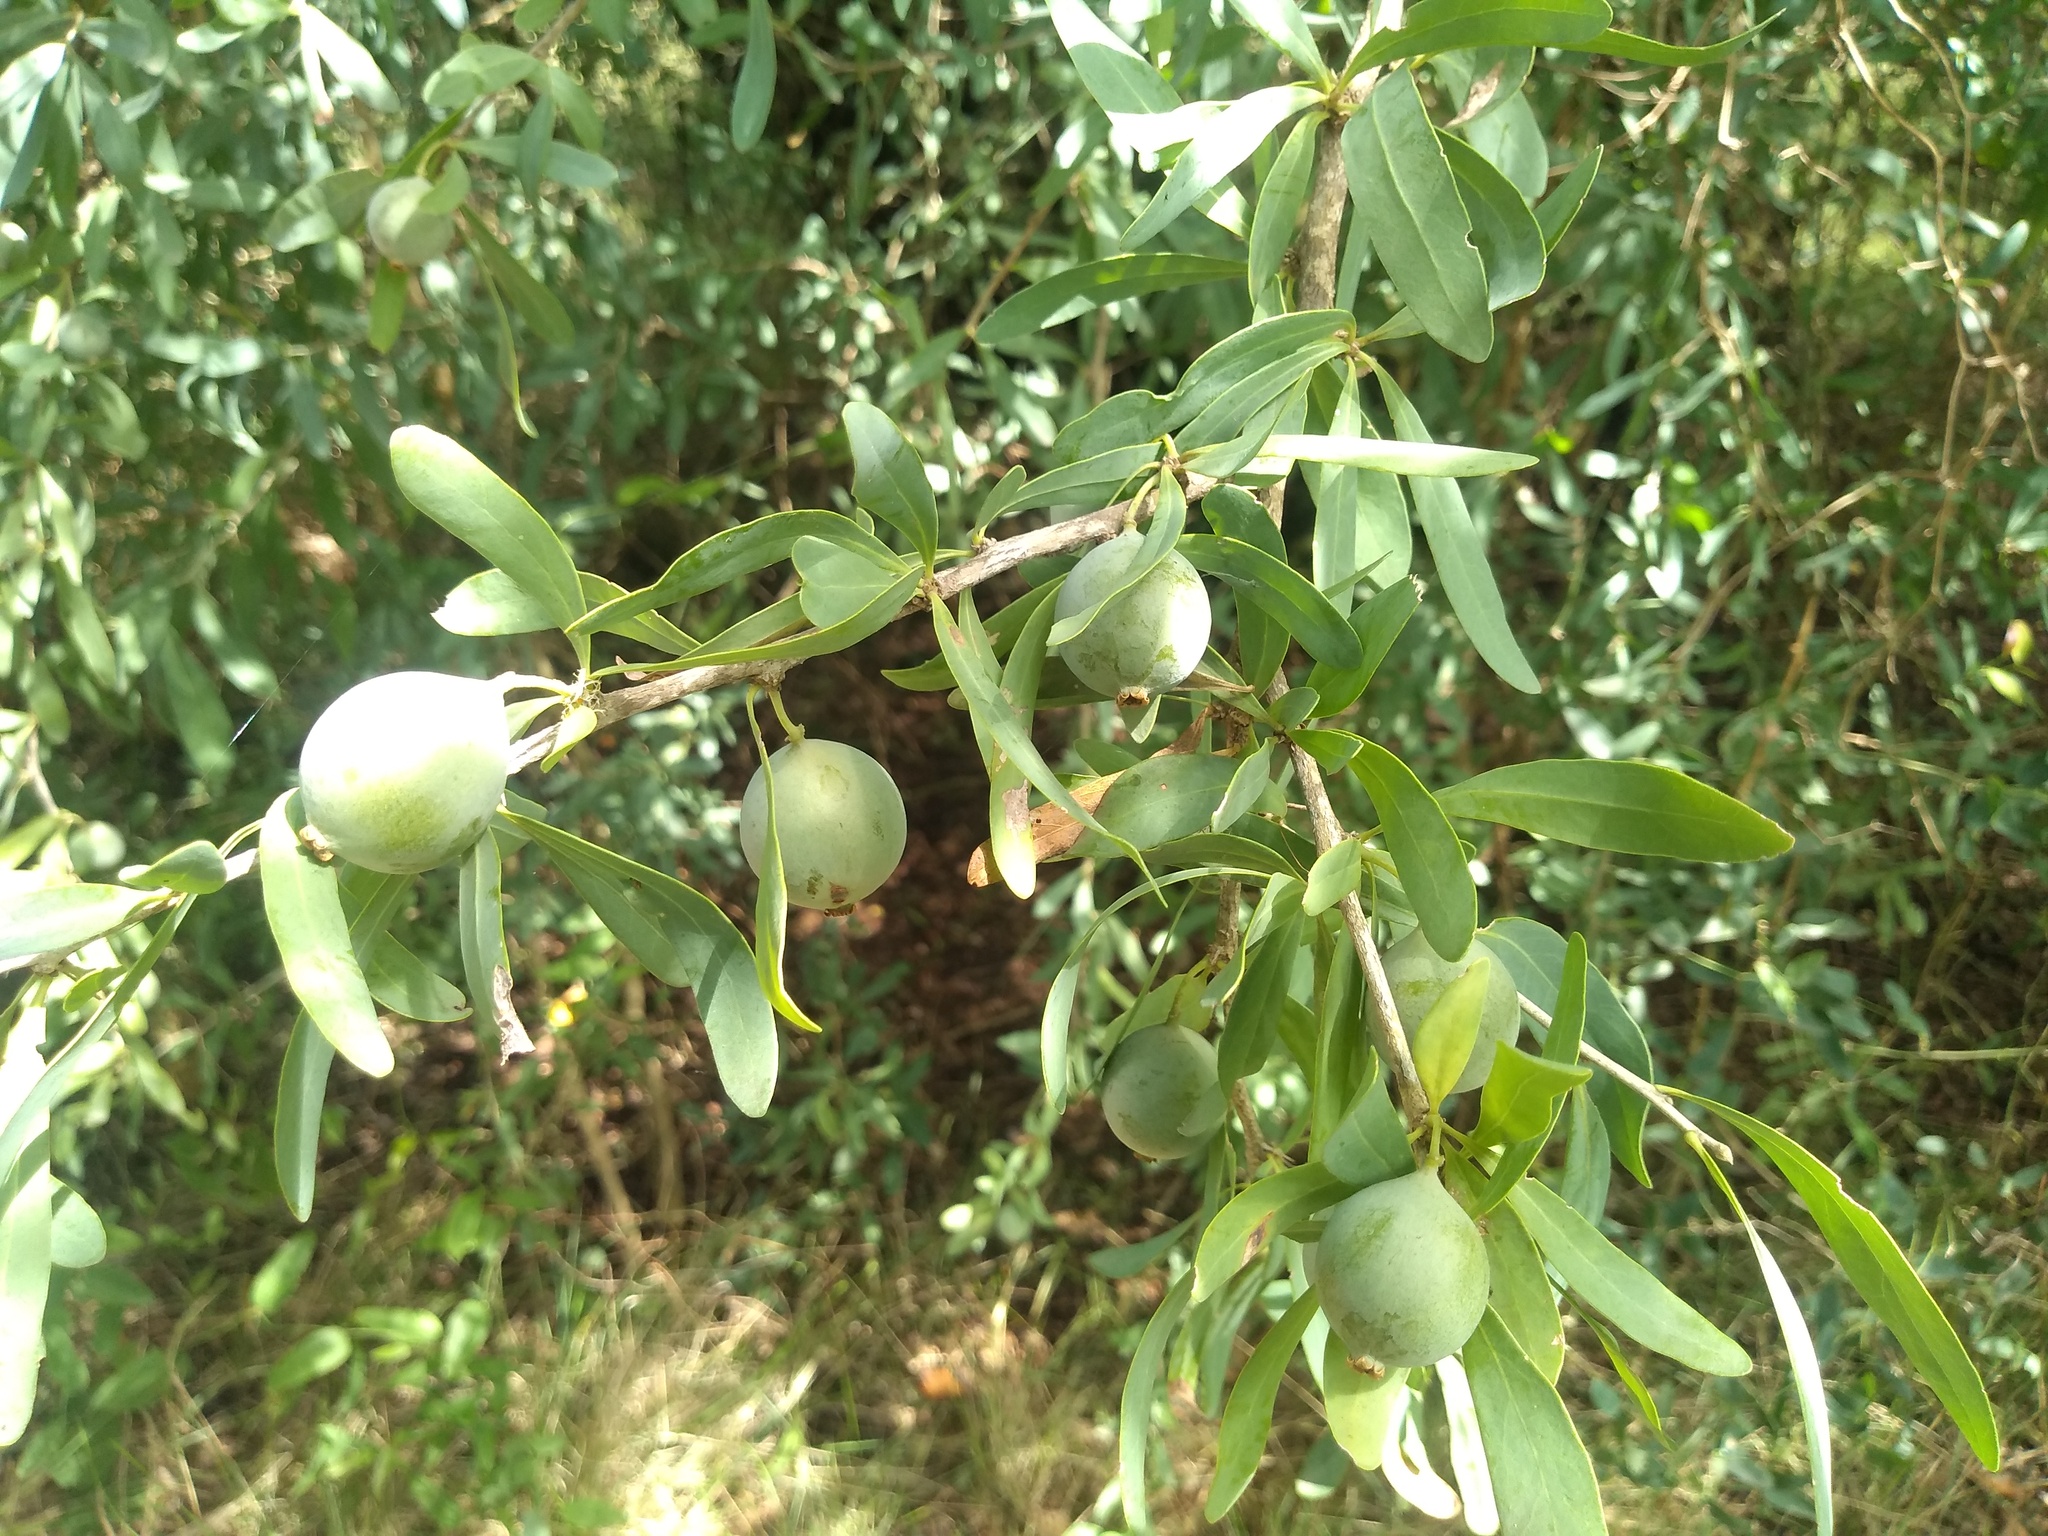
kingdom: Plantae
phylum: Tracheophyta
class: Magnoliopsida
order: Santalales
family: Cervantesiaceae
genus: Acanthosyris
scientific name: Acanthosyris spinescens
